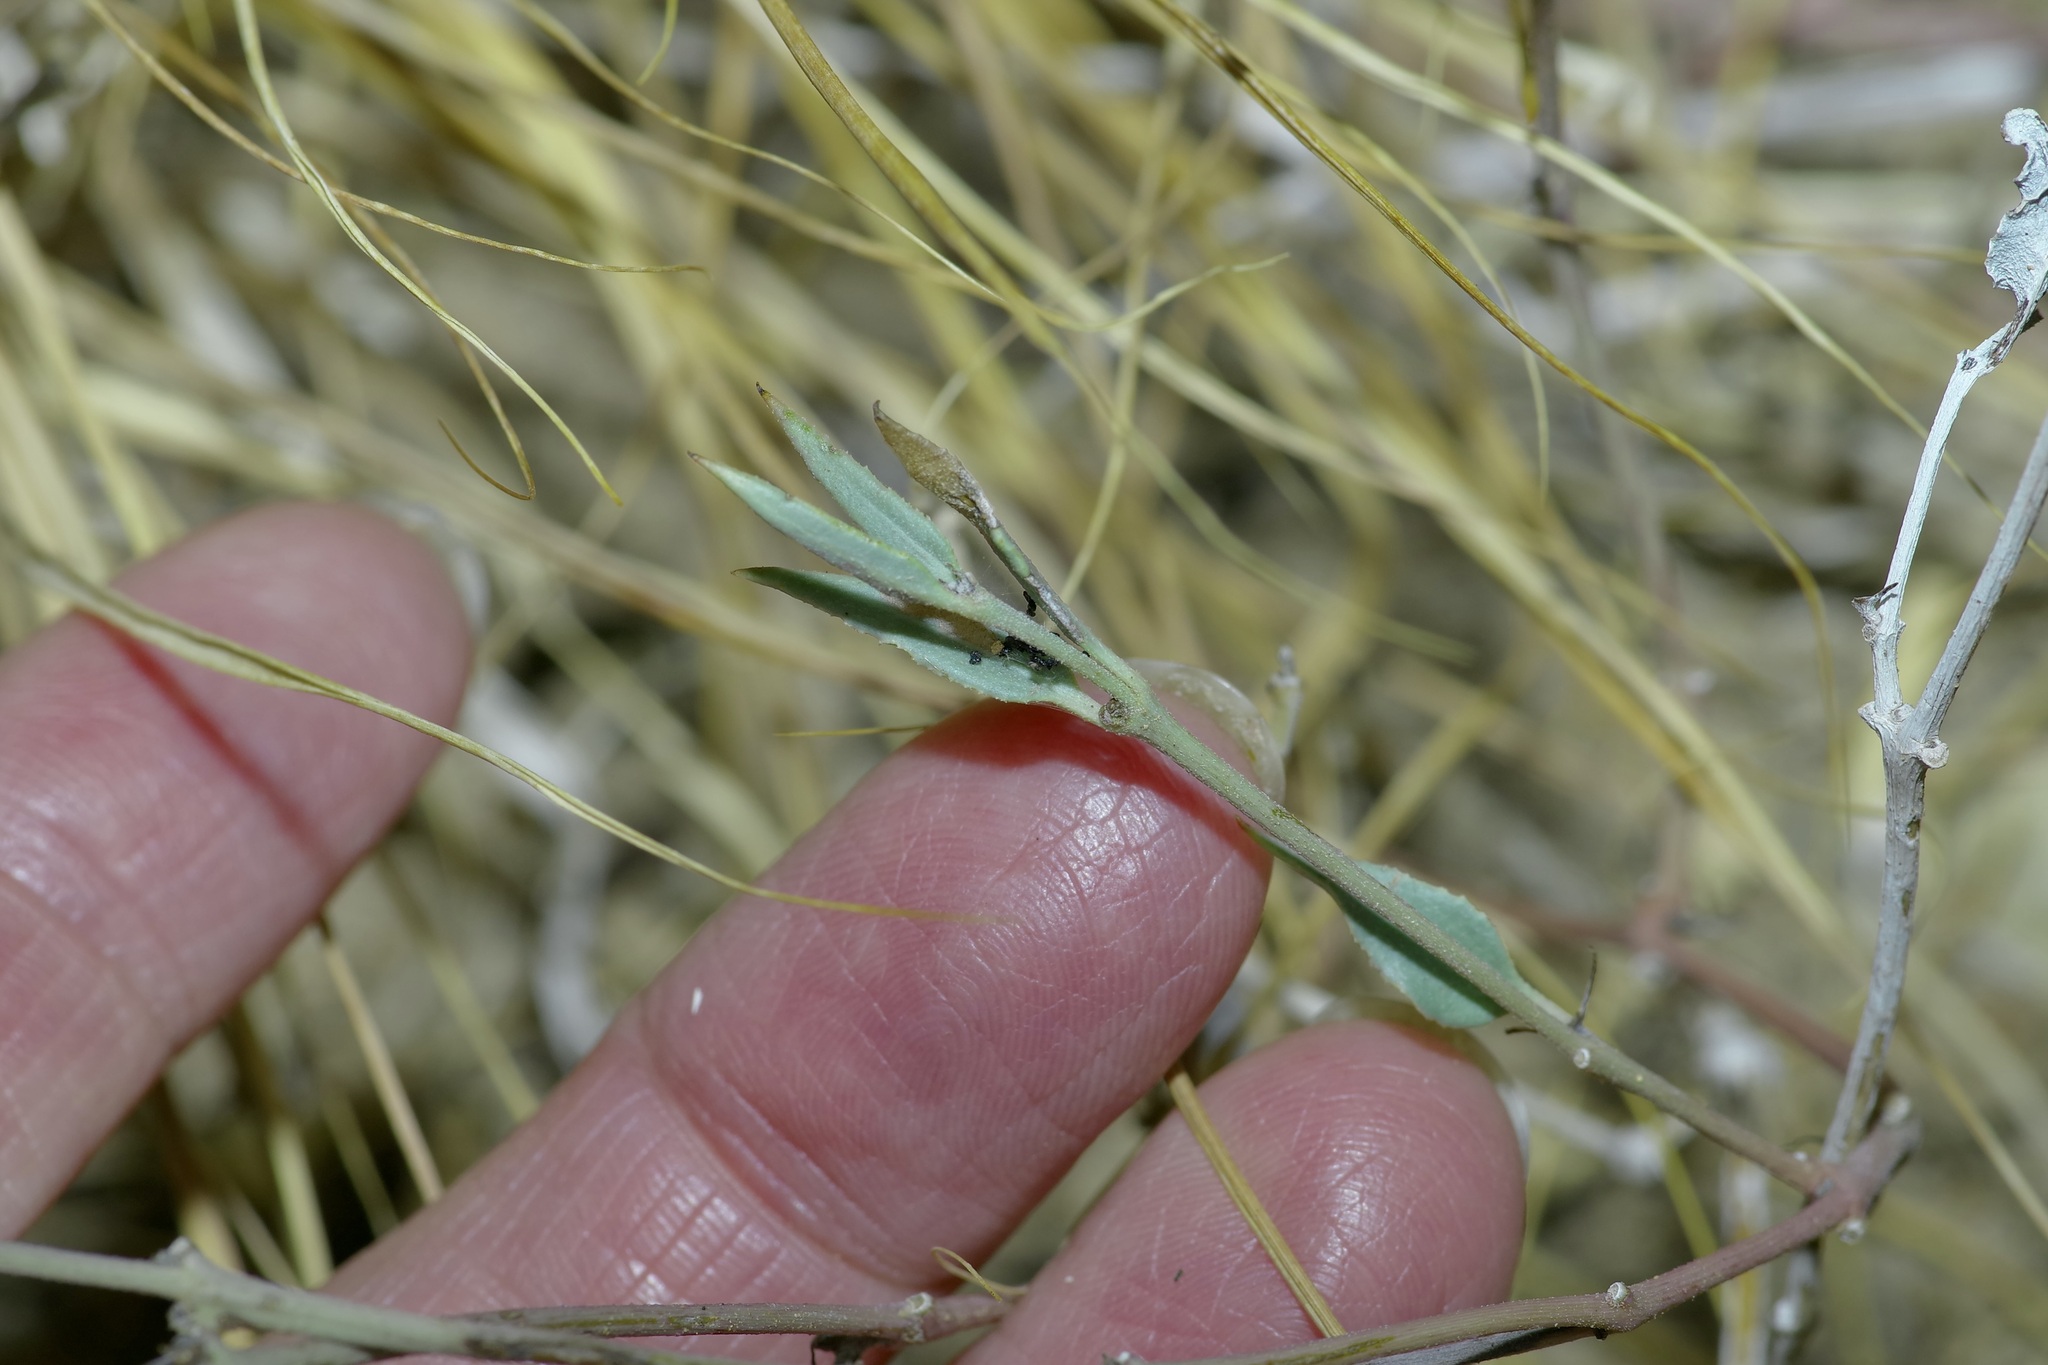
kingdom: Plantae
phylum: Tracheophyta
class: Magnoliopsida
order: Caryophyllales
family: Nyctaginaceae
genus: Acleisanthes
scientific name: Acleisanthes longiflora
